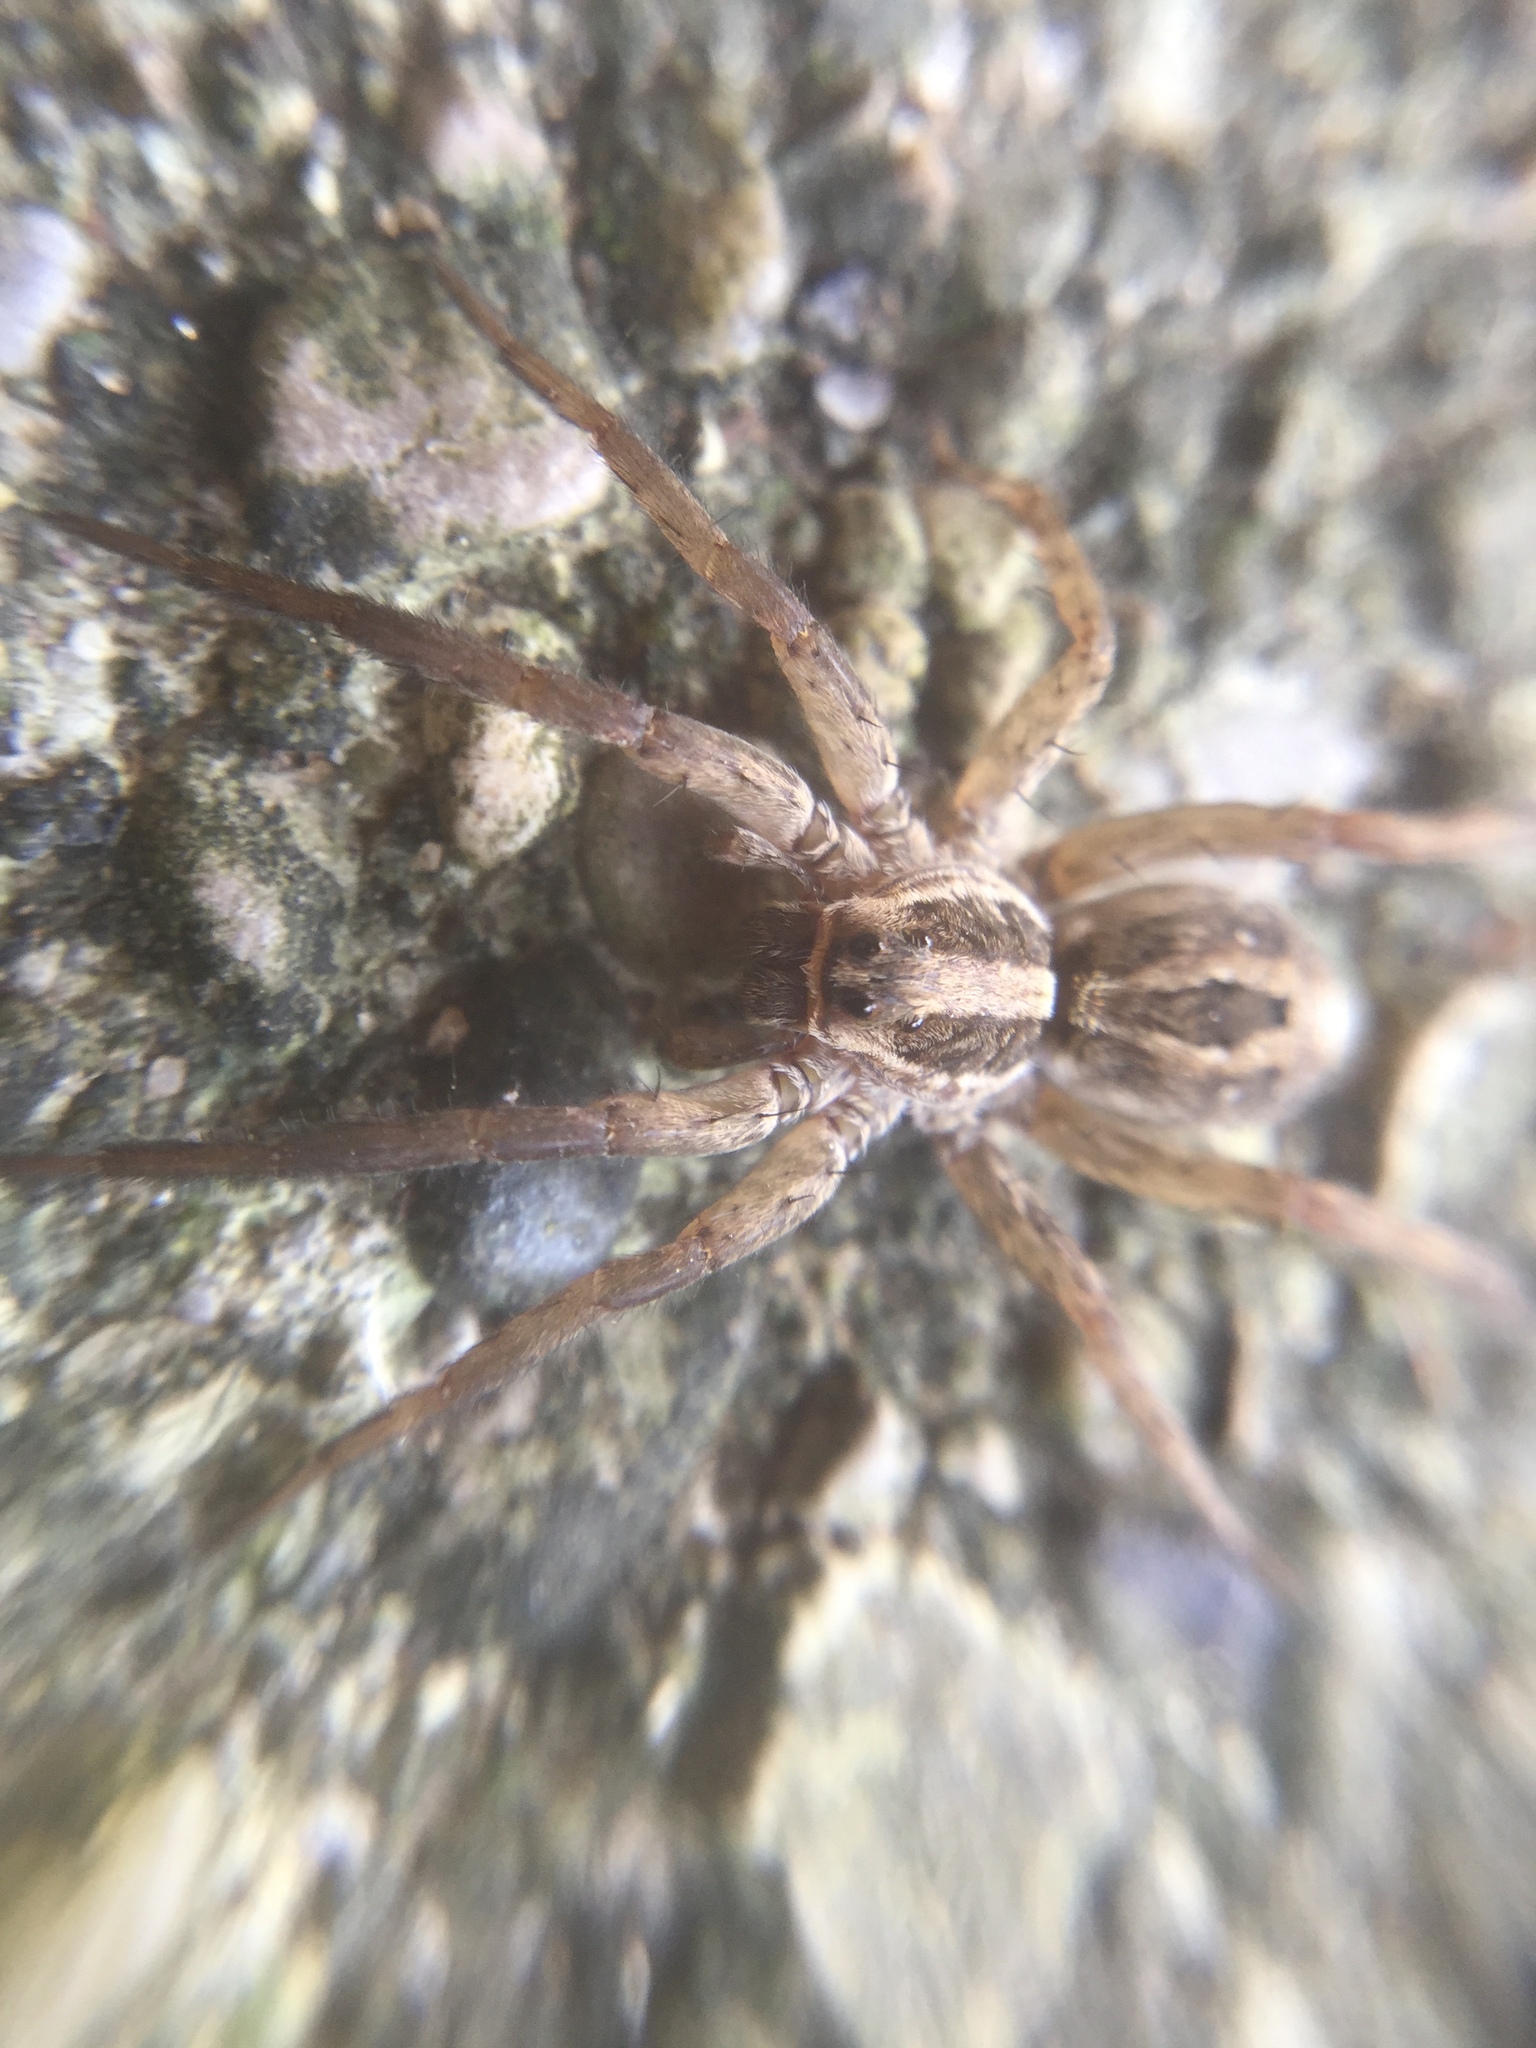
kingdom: Animalia
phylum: Arthropoda
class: Arachnida
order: Araneae
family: Lycosidae
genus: Schizocosa
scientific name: Schizocosa avida
